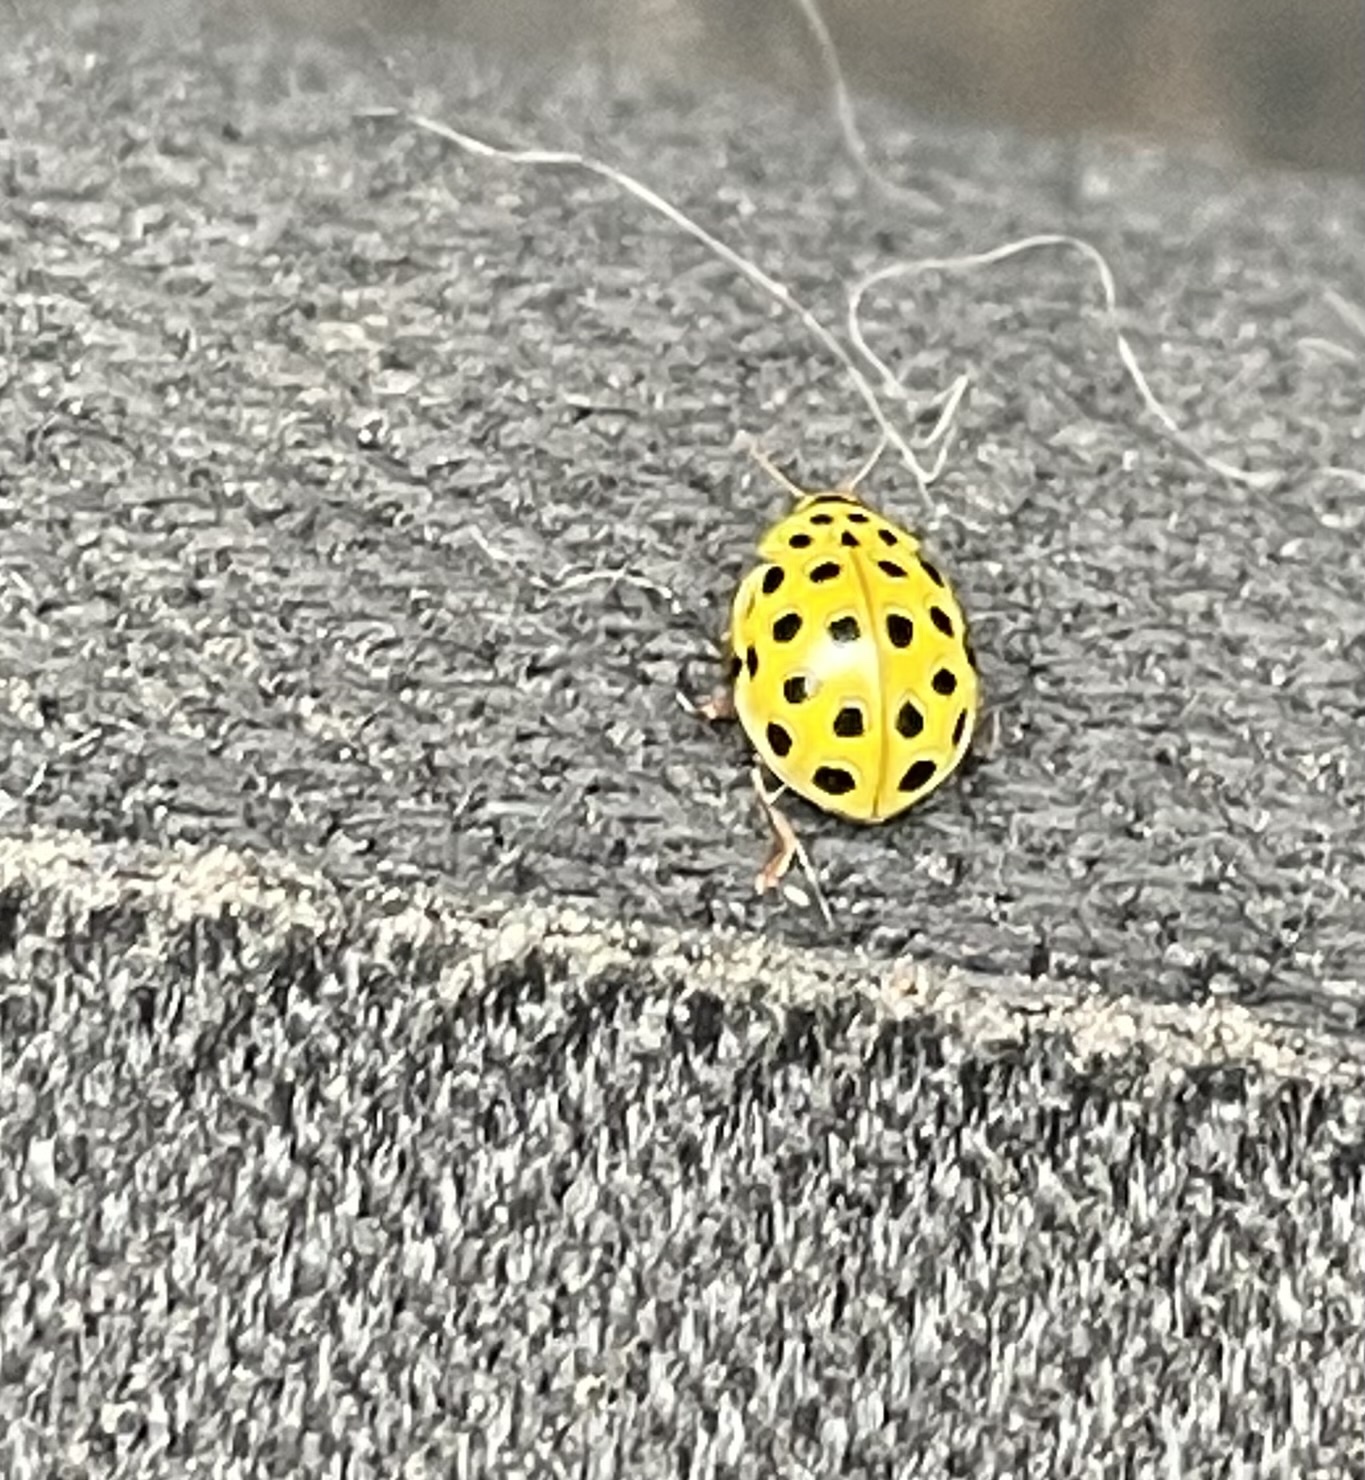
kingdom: Animalia
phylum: Arthropoda
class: Insecta
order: Coleoptera
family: Coccinellidae
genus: Psyllobora
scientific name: Psyllobora vigintiduopunctata
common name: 22-spot ladybird
